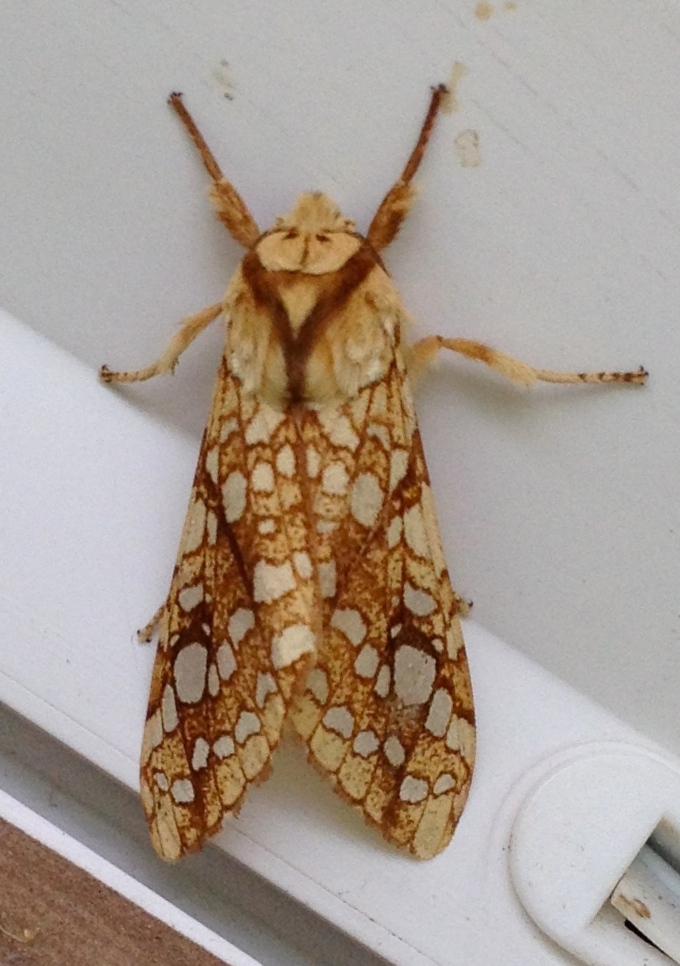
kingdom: Animalia
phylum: Arthropoda
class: Insecta
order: Lepidoptera
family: Erebidae
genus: Lophocampa
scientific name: Lophocampa caryae
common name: Hickory tussock moth
